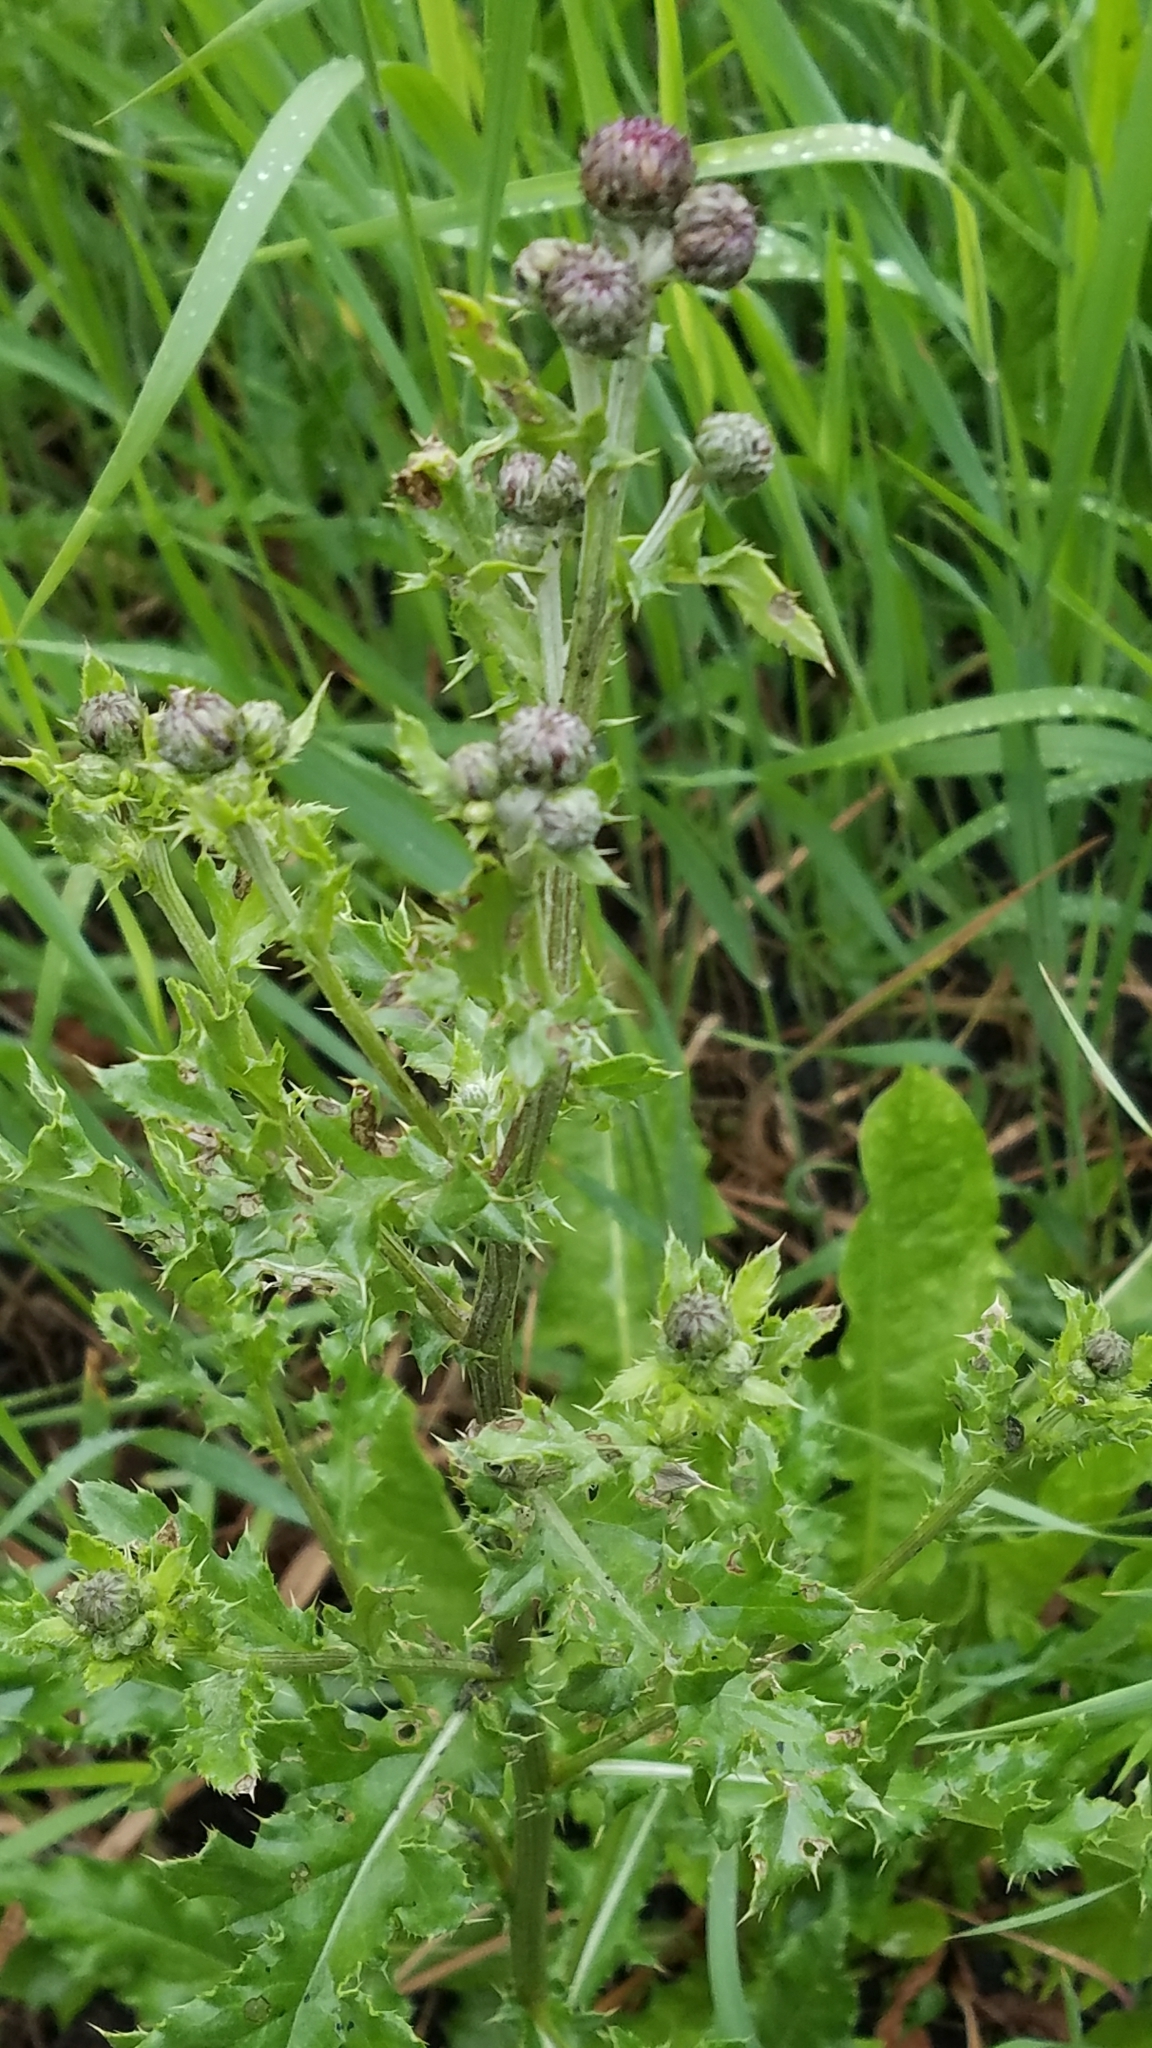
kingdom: Plantae
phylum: Tracheophyta
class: Magnoliopsida
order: Asterales
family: Asteraceae
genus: Cirsium
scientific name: Cirsium arvense
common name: Creeping thistle
